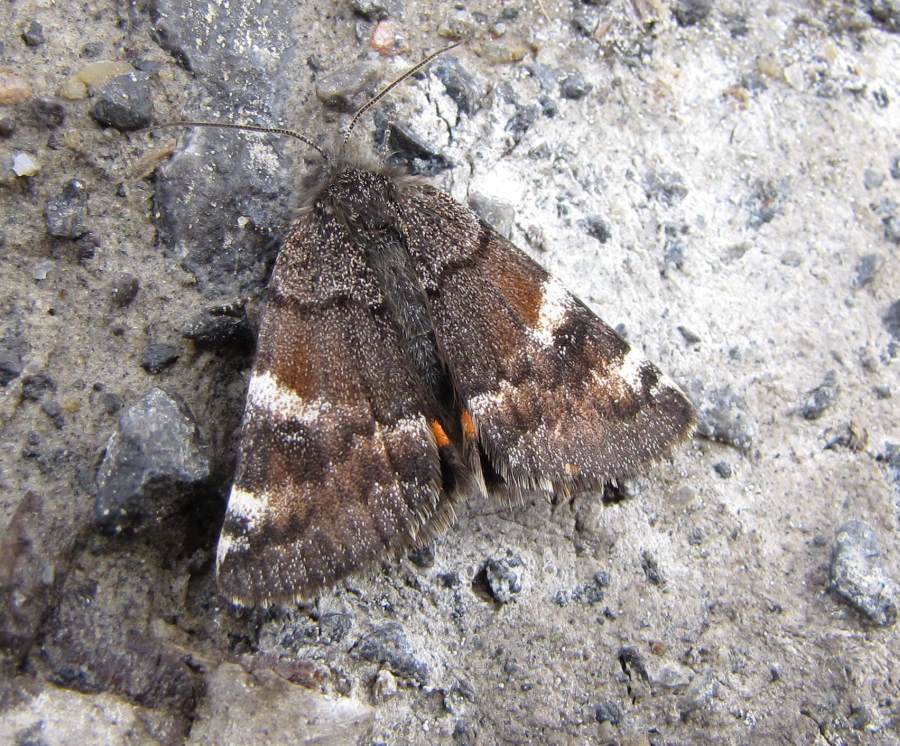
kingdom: Animalia
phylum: Arthropoda
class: Insecta
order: Lepidoptera
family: Geometridae
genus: Archiearis
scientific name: Archiearis infans
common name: First born geometer
